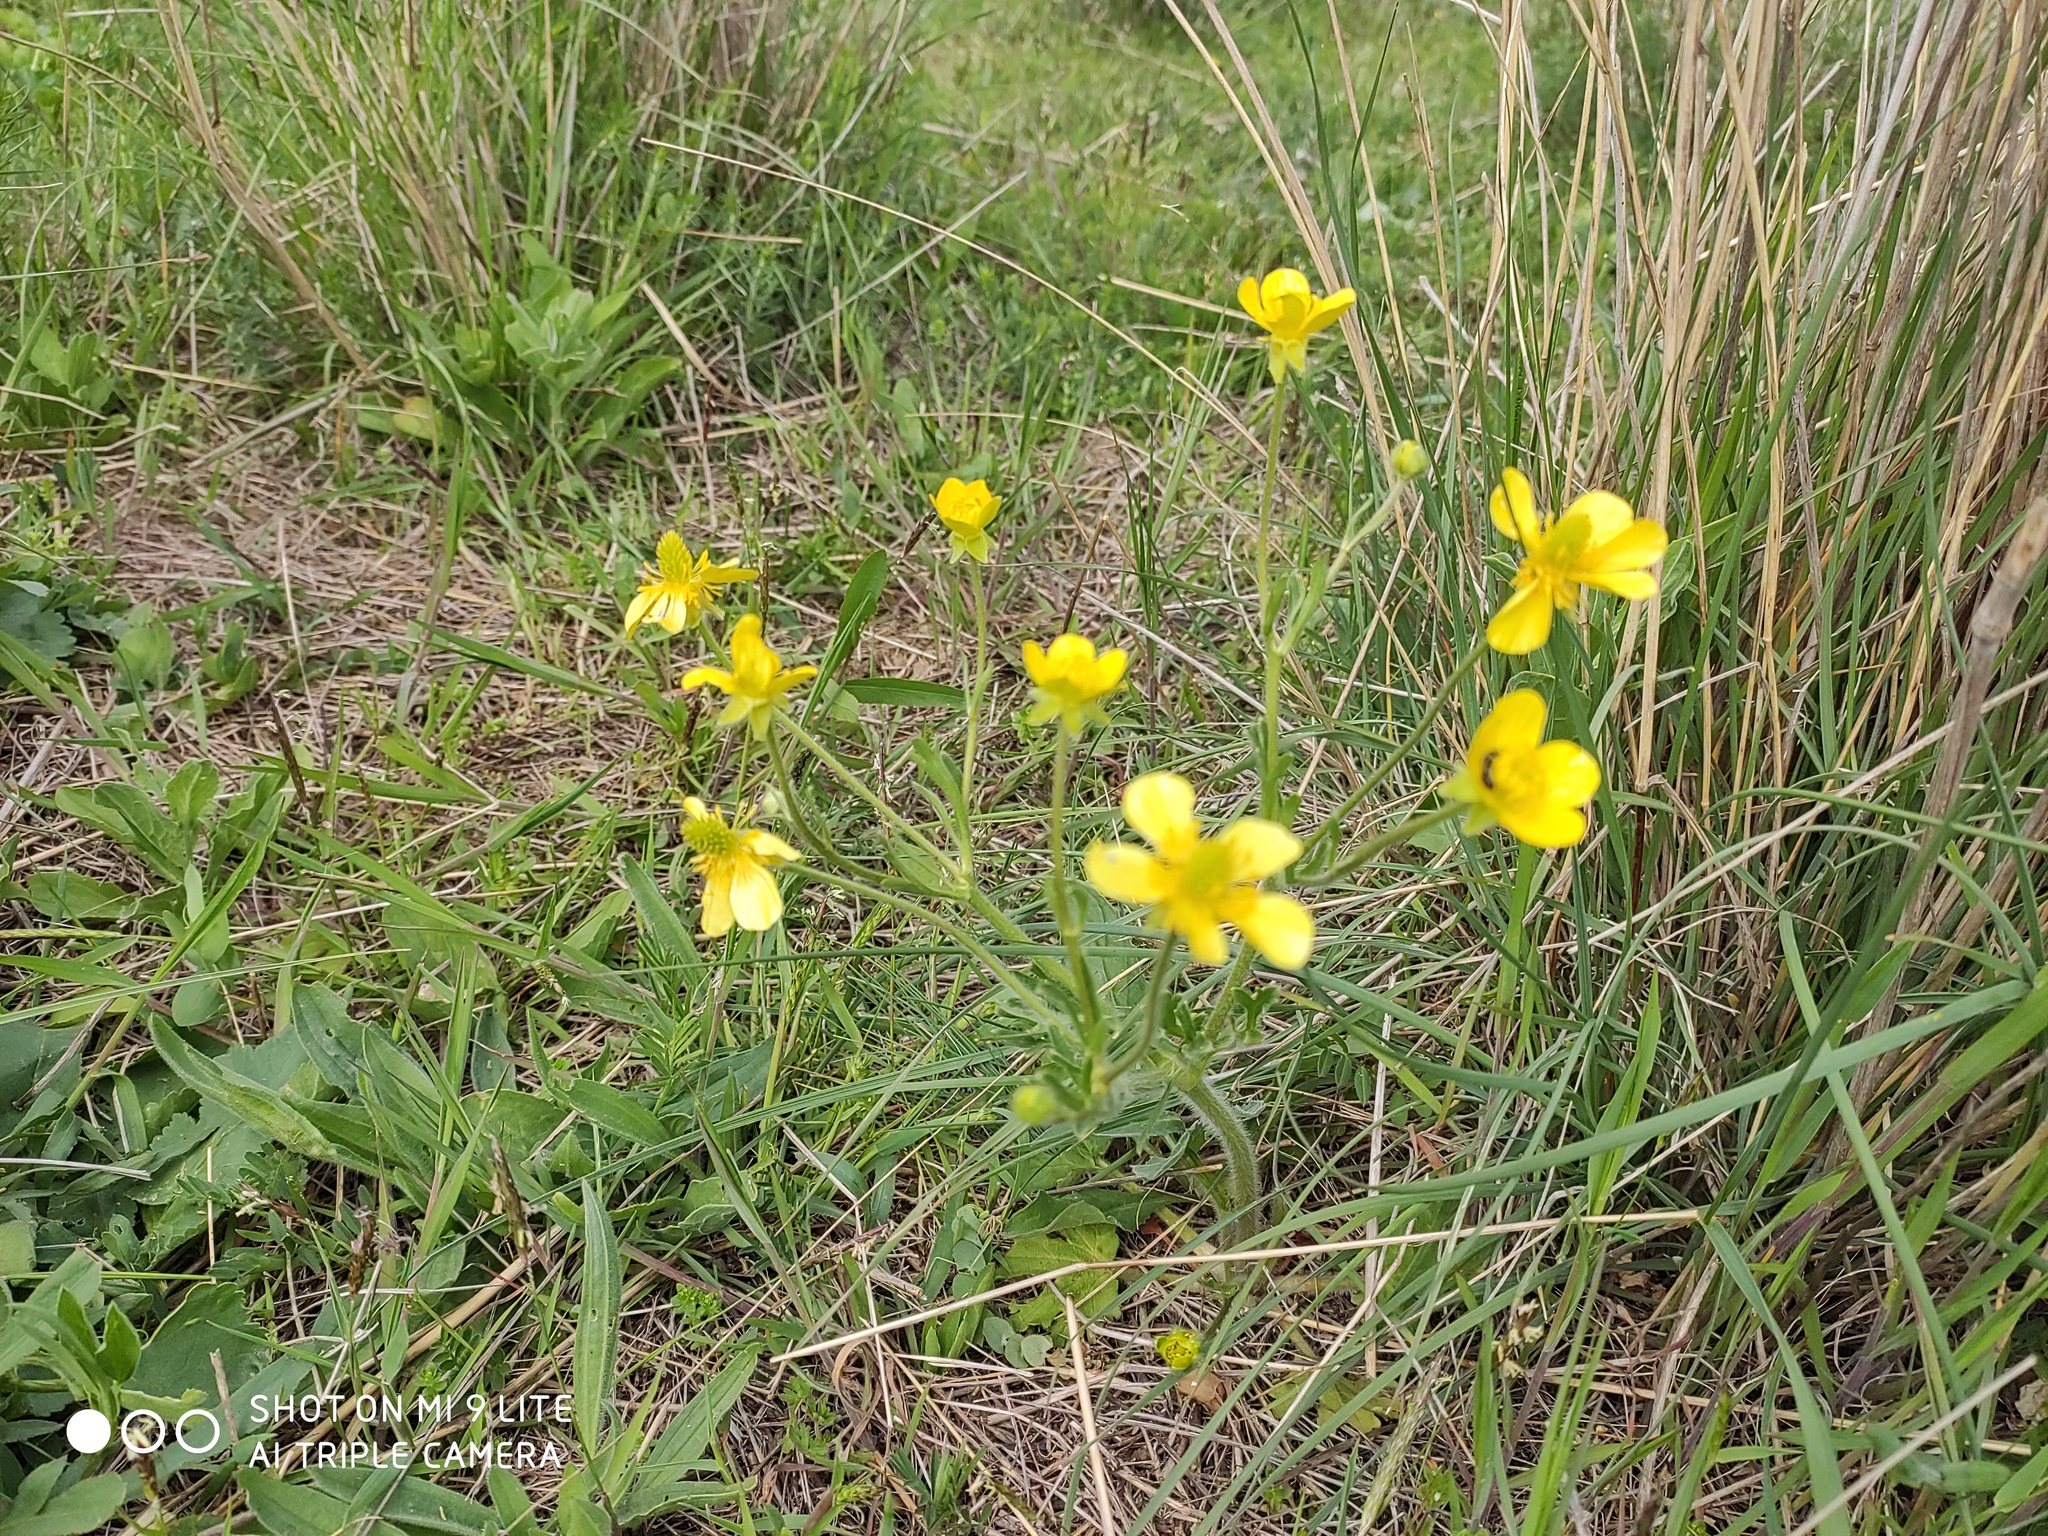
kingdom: Plantae
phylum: Tracheophyta
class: Magnoliopsida
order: Ranunculales
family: Ranunculaceae
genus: Ranunculus
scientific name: Ranunculus oxyspermus
